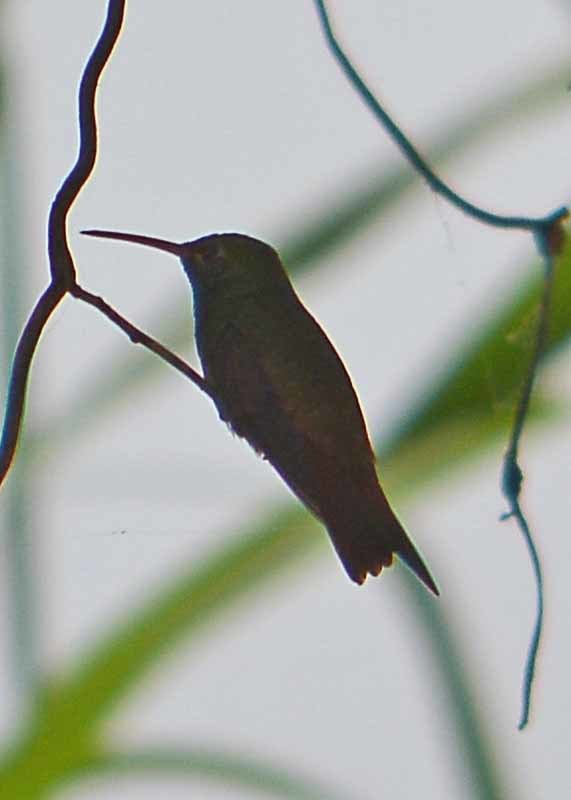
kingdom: Animalia
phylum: Chordata
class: Aves
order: Apodiformes
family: Trochilidae
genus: Amazilia
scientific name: Amazilia yucatanensis
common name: Buff-bellied hummingbird
